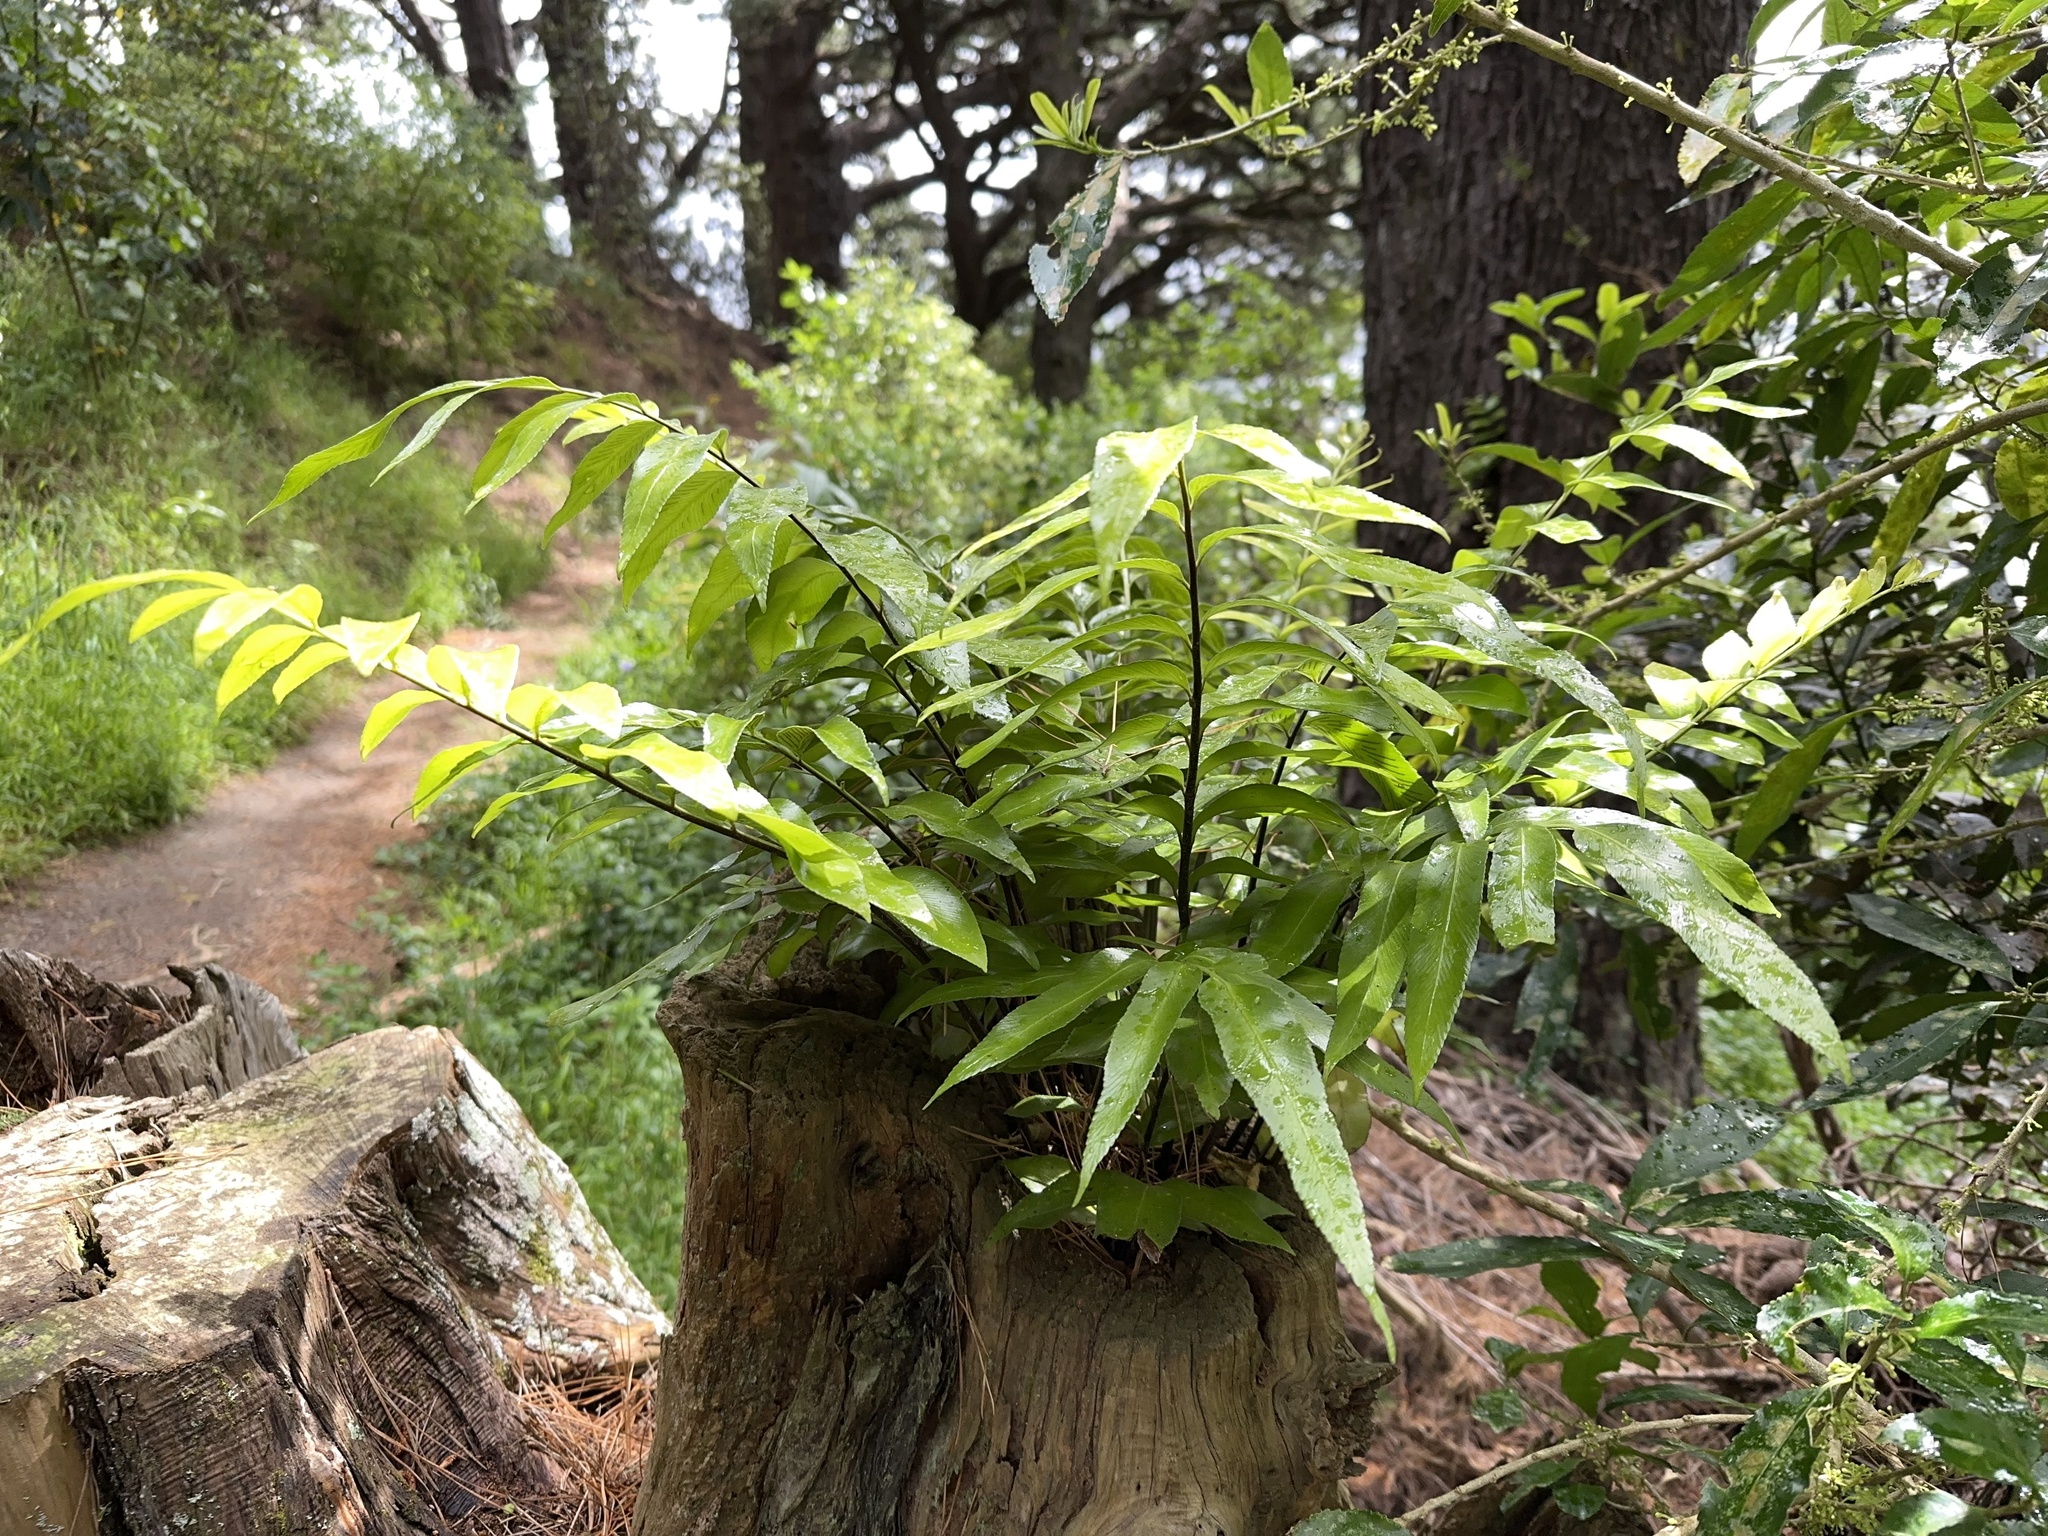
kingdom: Plantae
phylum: Tracheophyta
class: Polypodiopsida
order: Polypodiales
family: Aspleniaceae
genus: Asplenium
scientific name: Asplenium oblongifolium
